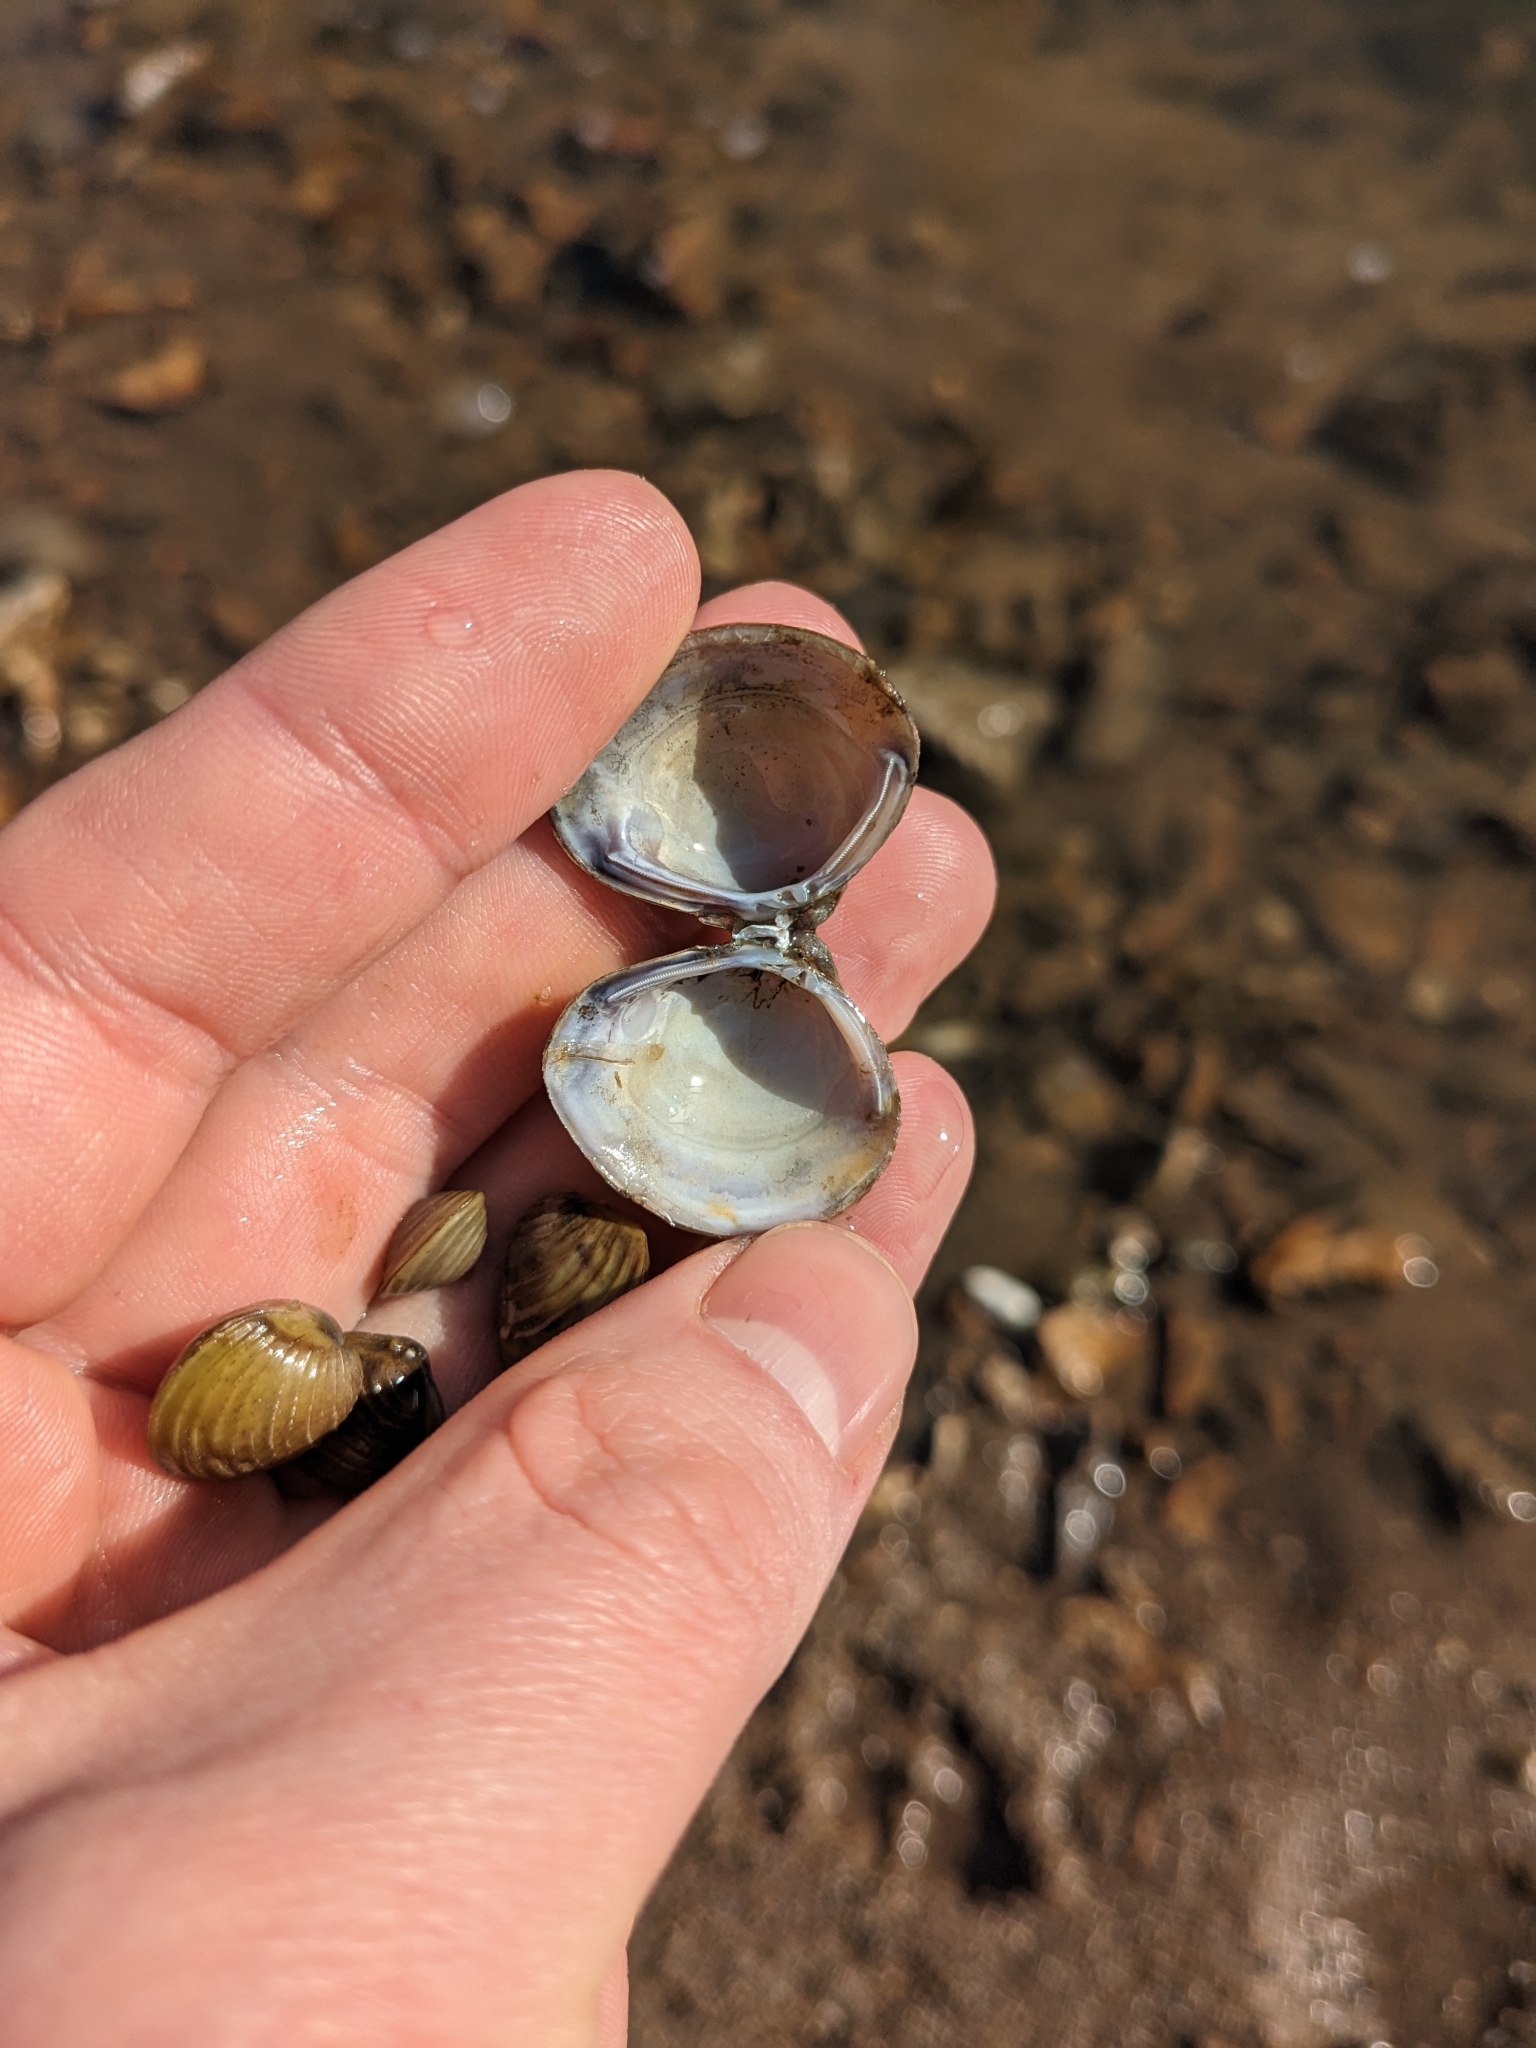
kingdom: Animalia
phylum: Mollusca
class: Bivalvia
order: Venerida
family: Cyrenidae
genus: Corbicula
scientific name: Corbicula fluminea
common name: Asian clam
